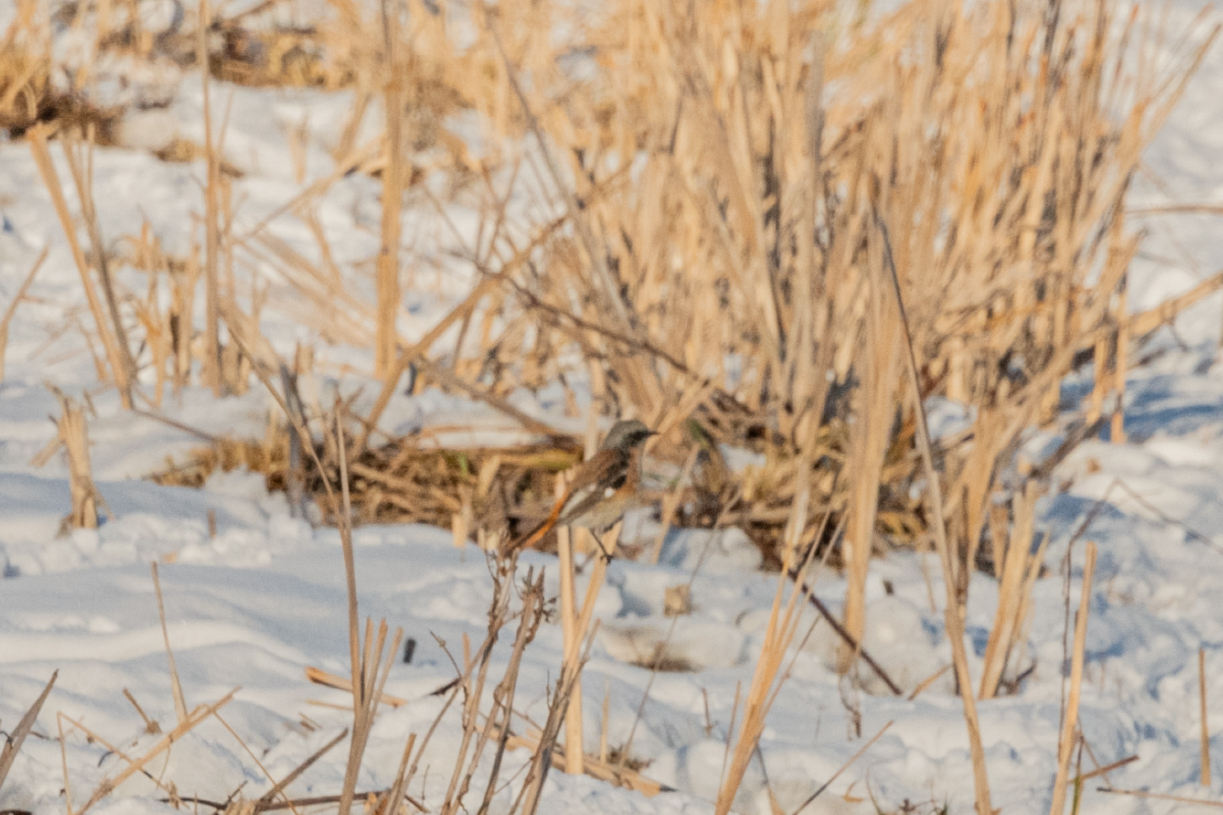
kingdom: Animalia
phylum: Chordata
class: Aves
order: Passeriformes
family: Muscicapidae
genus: Phoenicurus
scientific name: Phoenicurus erythronotus
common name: Eversmann's redstart
